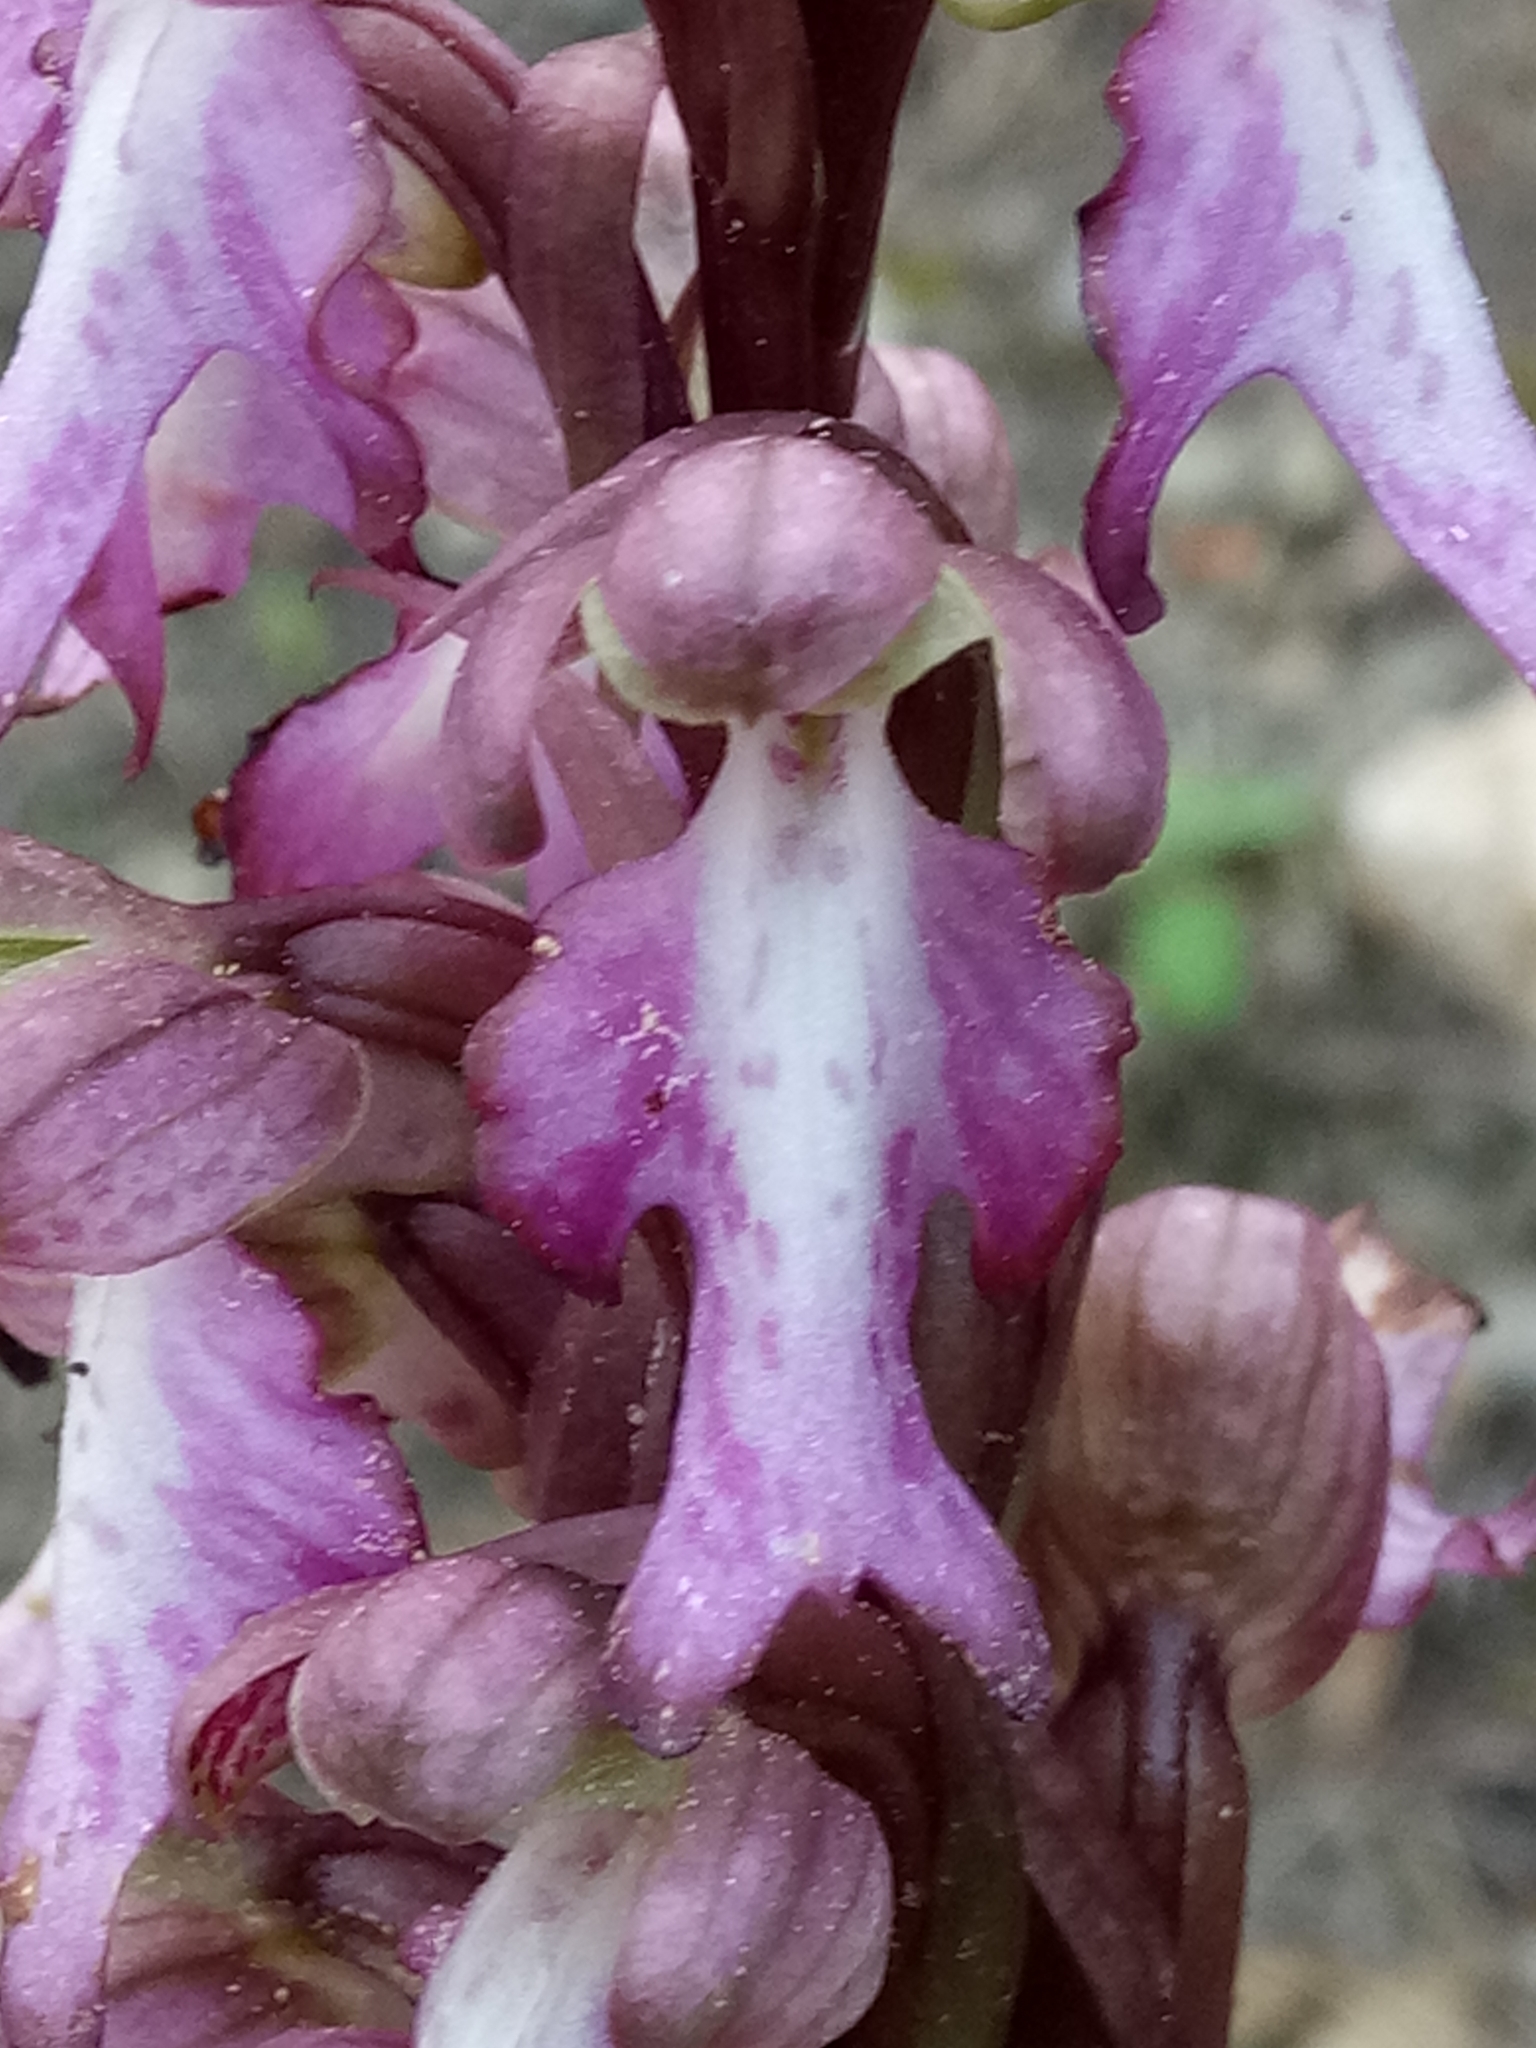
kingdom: Plantae
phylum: Tracheophyta
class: Liliopsida
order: Asparagales
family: Orchidaceae
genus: Himantoglossum
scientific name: Himantoglossum robertianum
